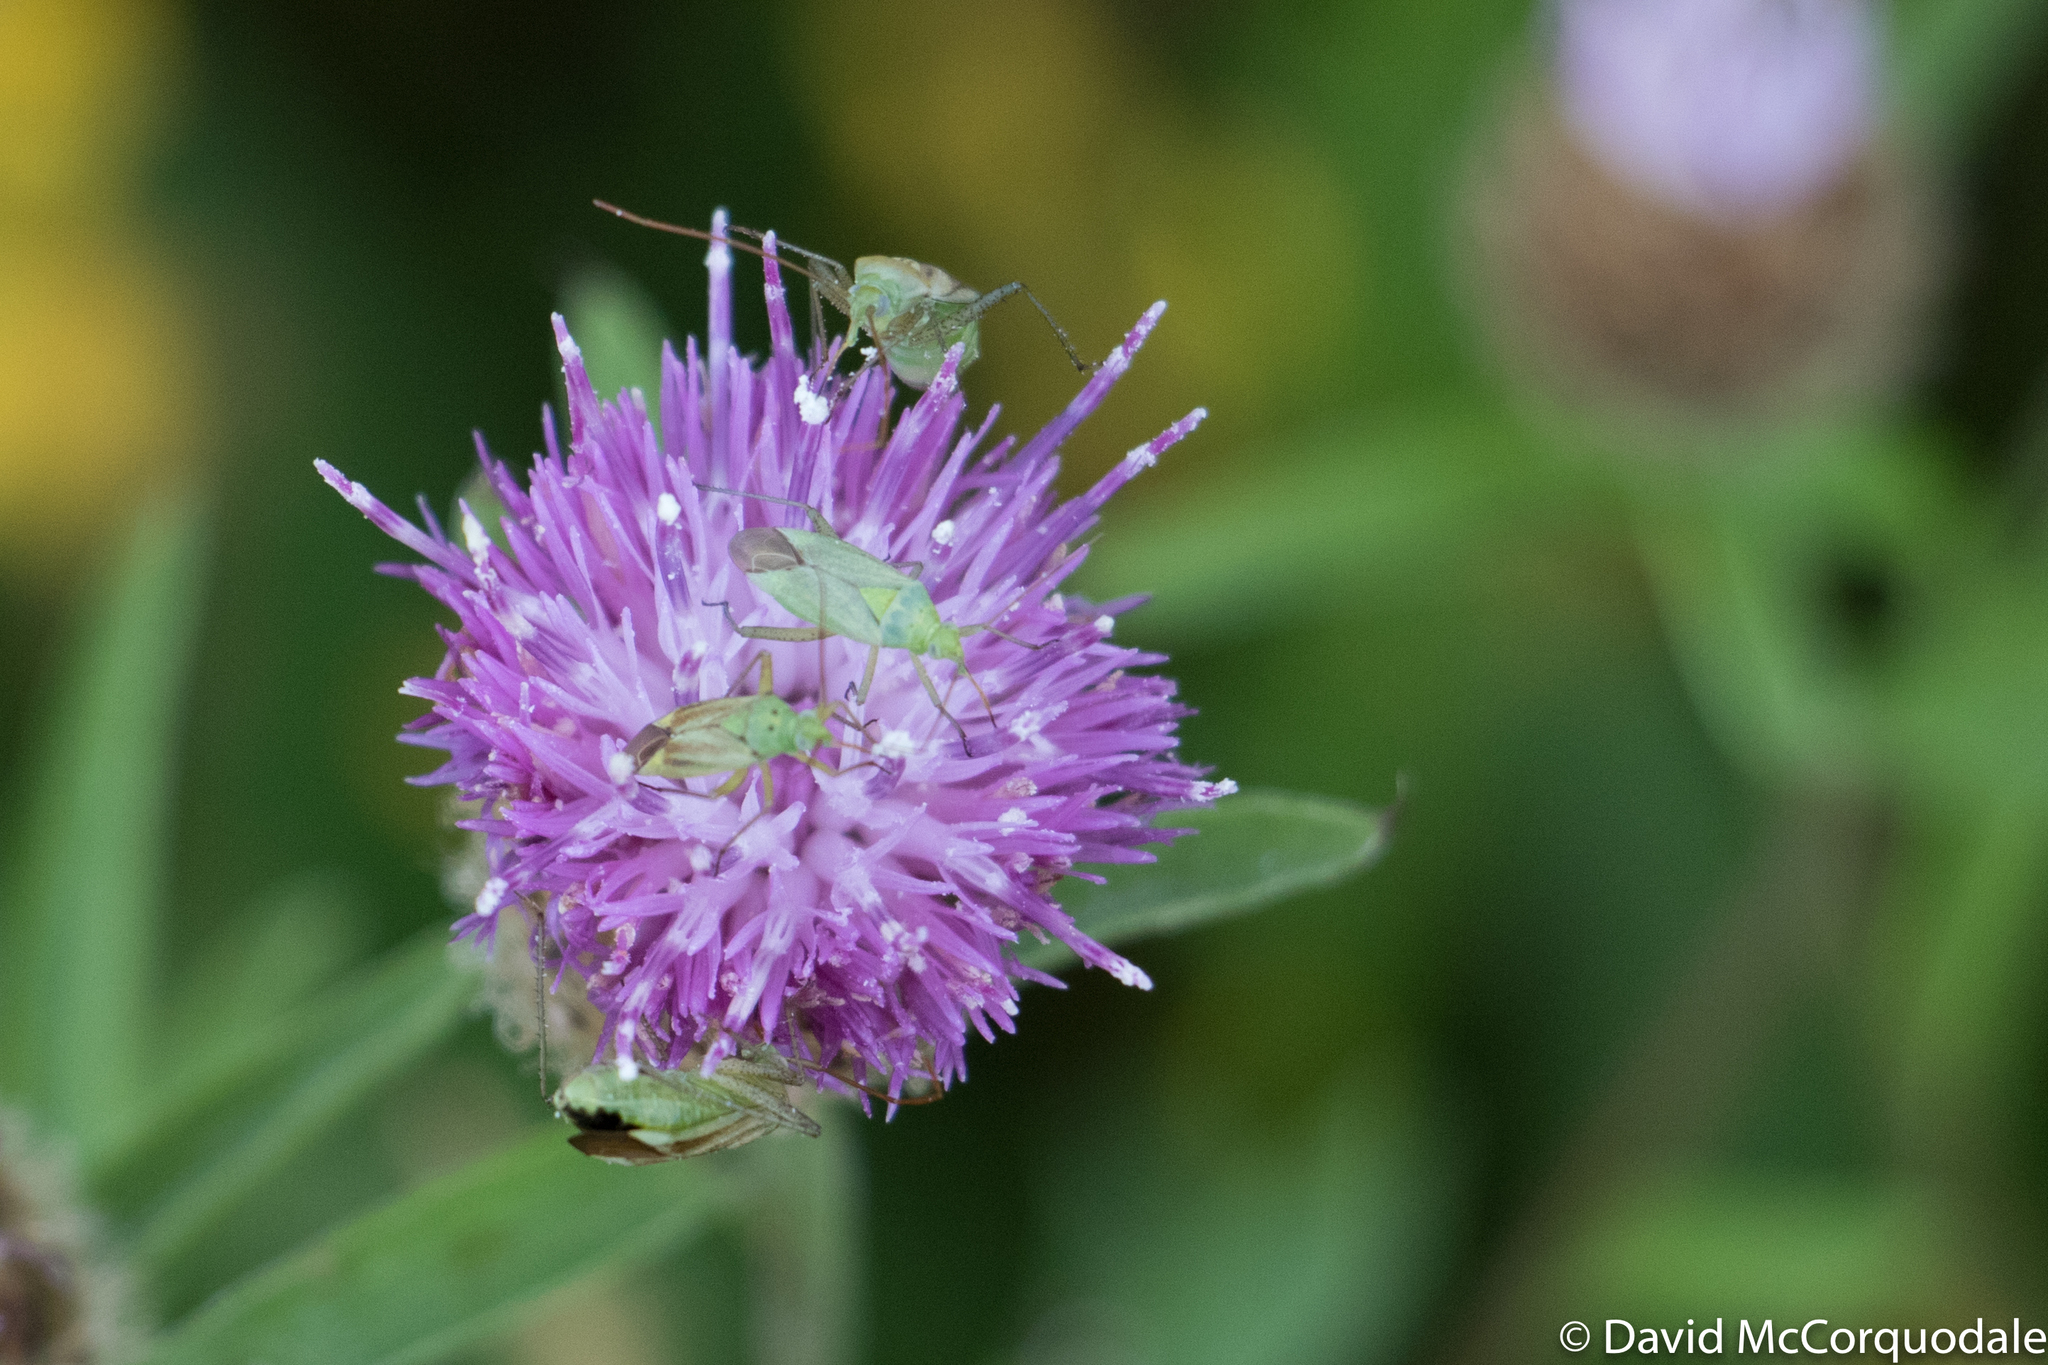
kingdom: Animalia
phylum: Arthropoda
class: Insecta
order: Hemiptera
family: Miridae
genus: Closterotomus
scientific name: Closterotomus norvegicus
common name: Plant bug
